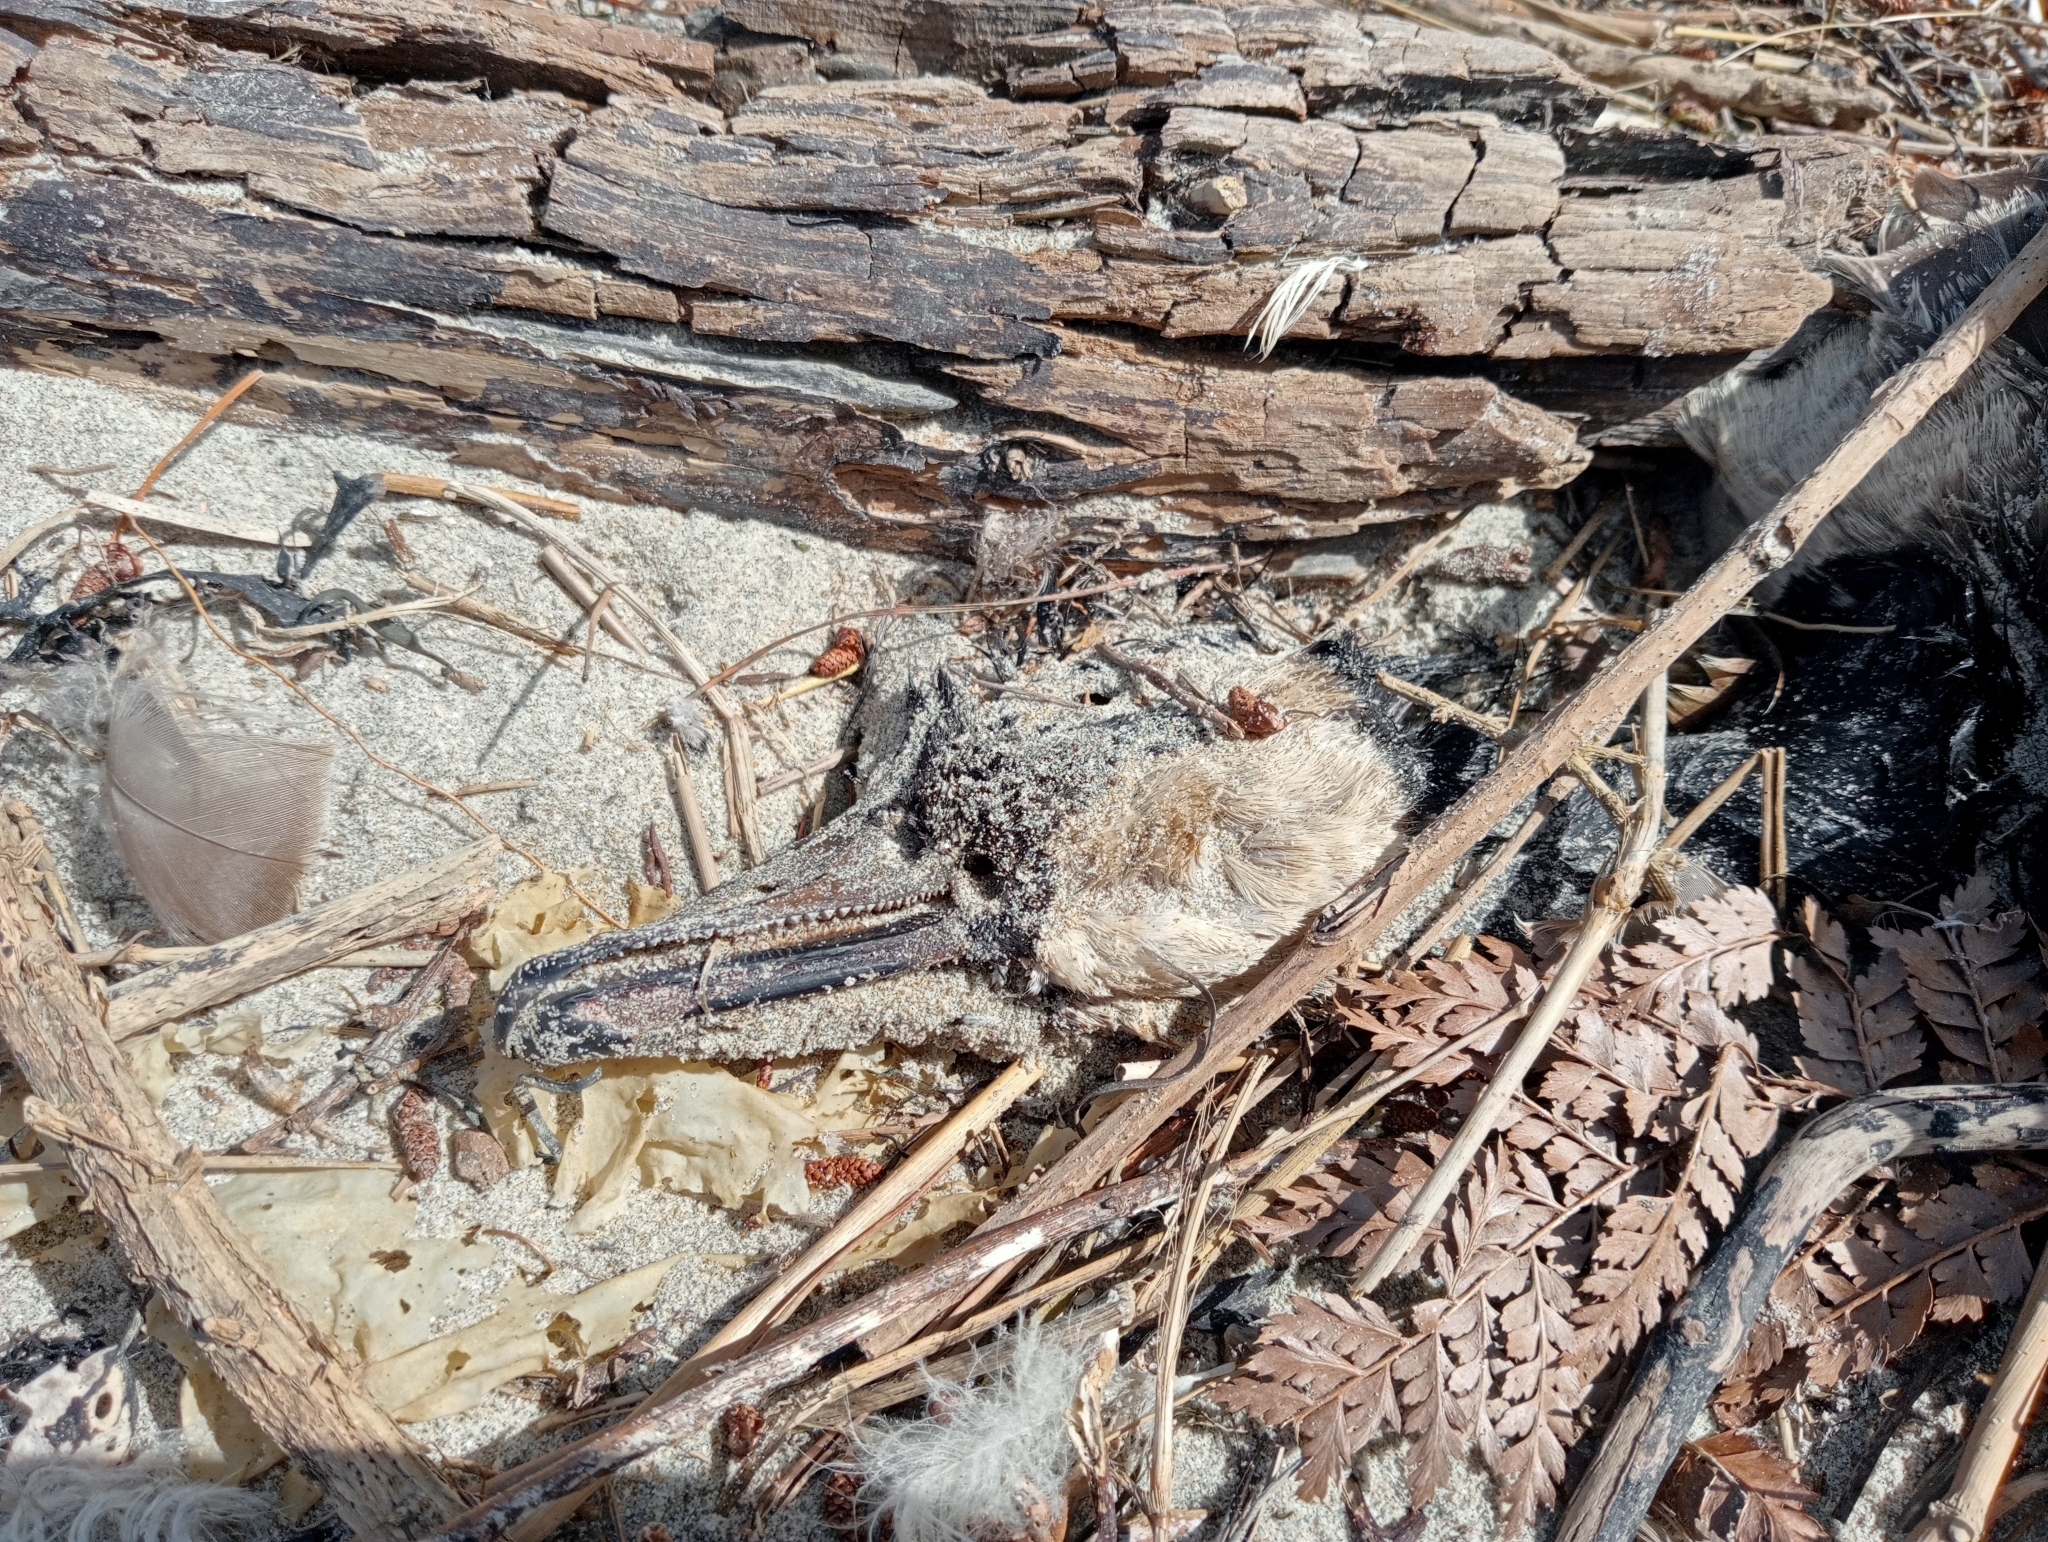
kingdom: Animalia
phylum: Chordata
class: Aves
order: Anseriformes
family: Anatidae
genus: Branta
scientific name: Branta canadensis
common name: Canada goose
